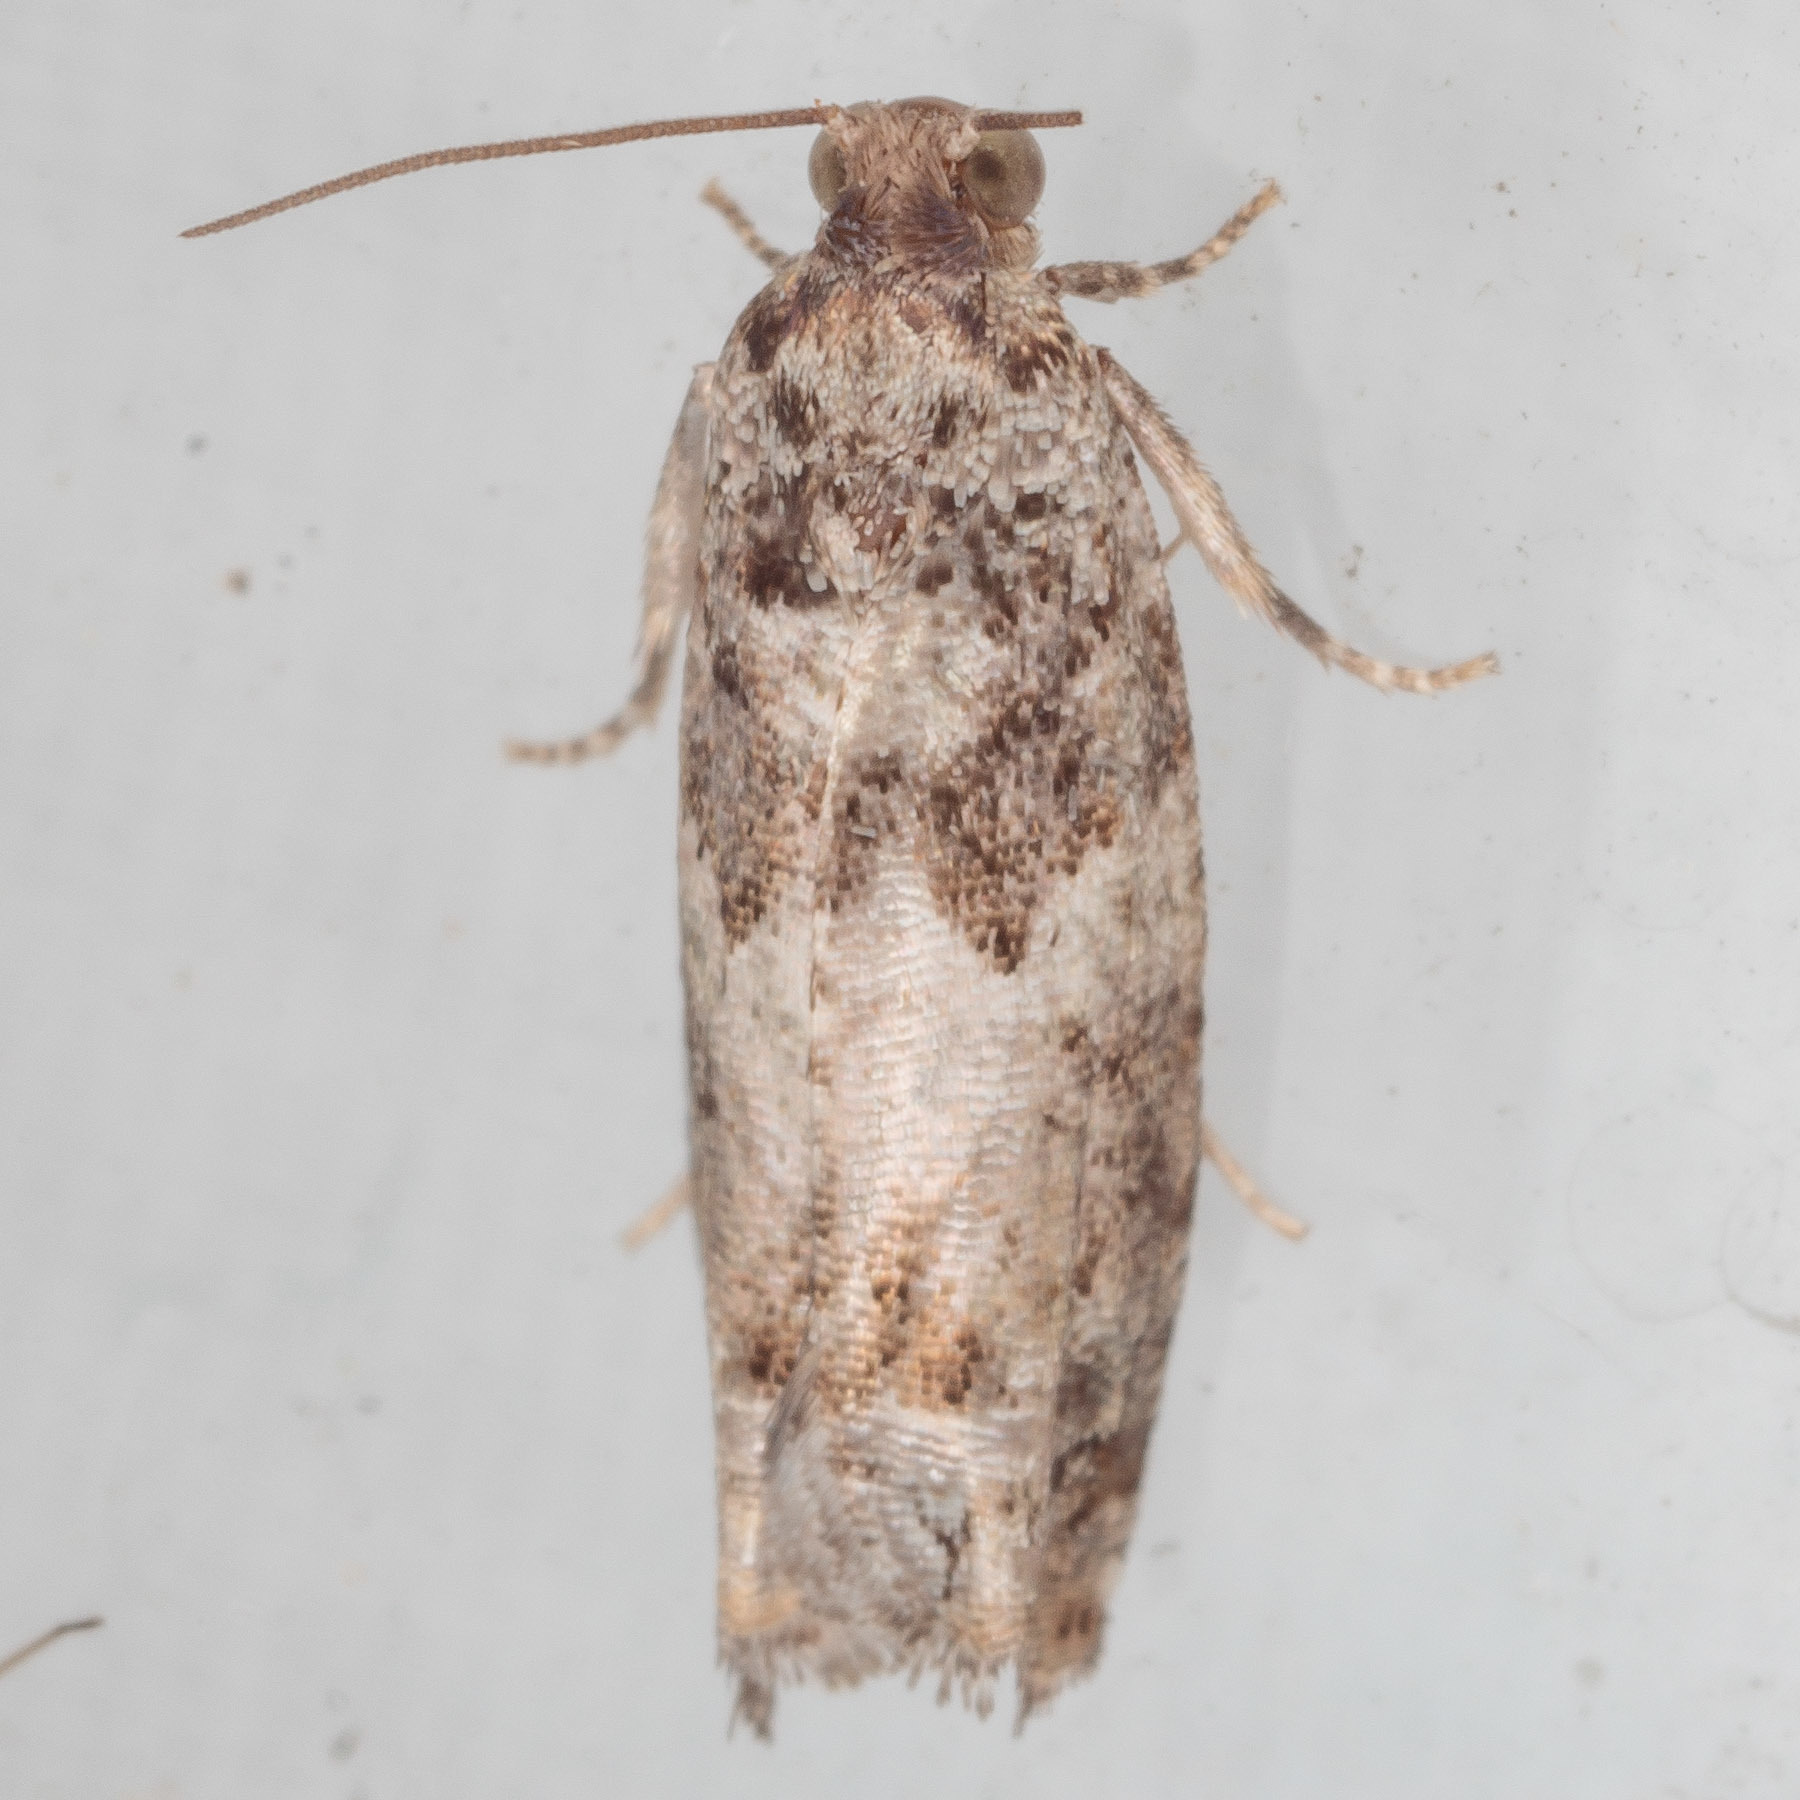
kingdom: Animalia
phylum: Arthropoda
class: Insecta
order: Lepidoptera
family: Tortricidae
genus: Pseudexentera
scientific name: Pseudexentera knudsoni
